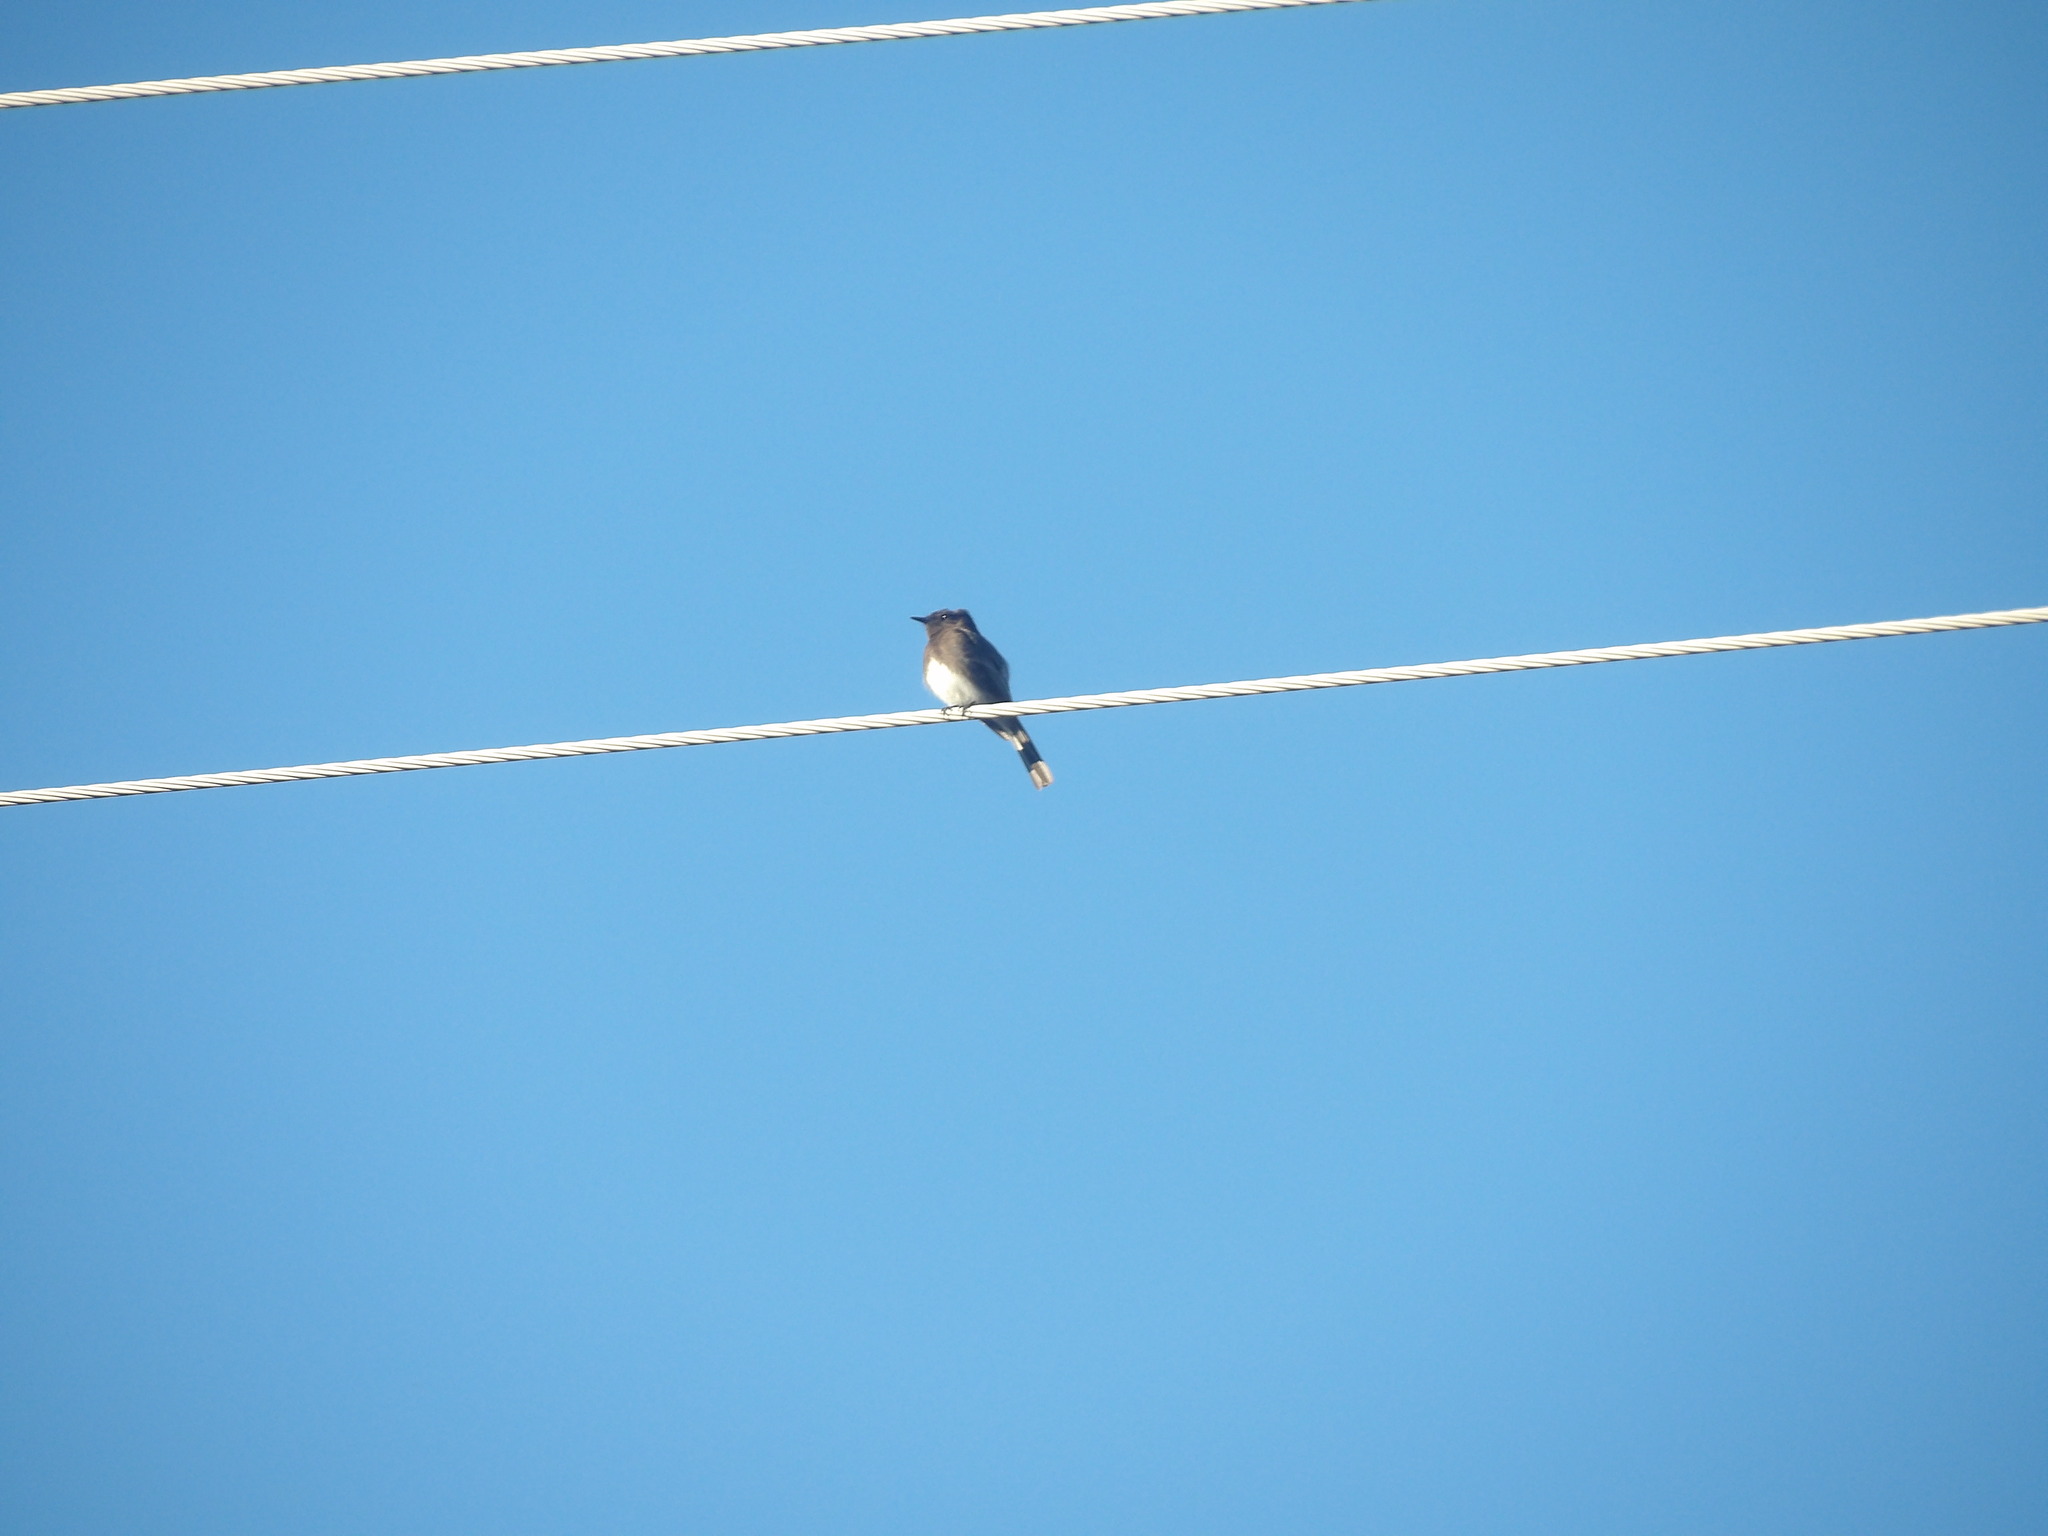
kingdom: Animalia
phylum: Chordata
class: Aves
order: Passeriformes
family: Tyrannidae
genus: Sayornis
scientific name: Sayornis nigricans
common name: Black phoebe
